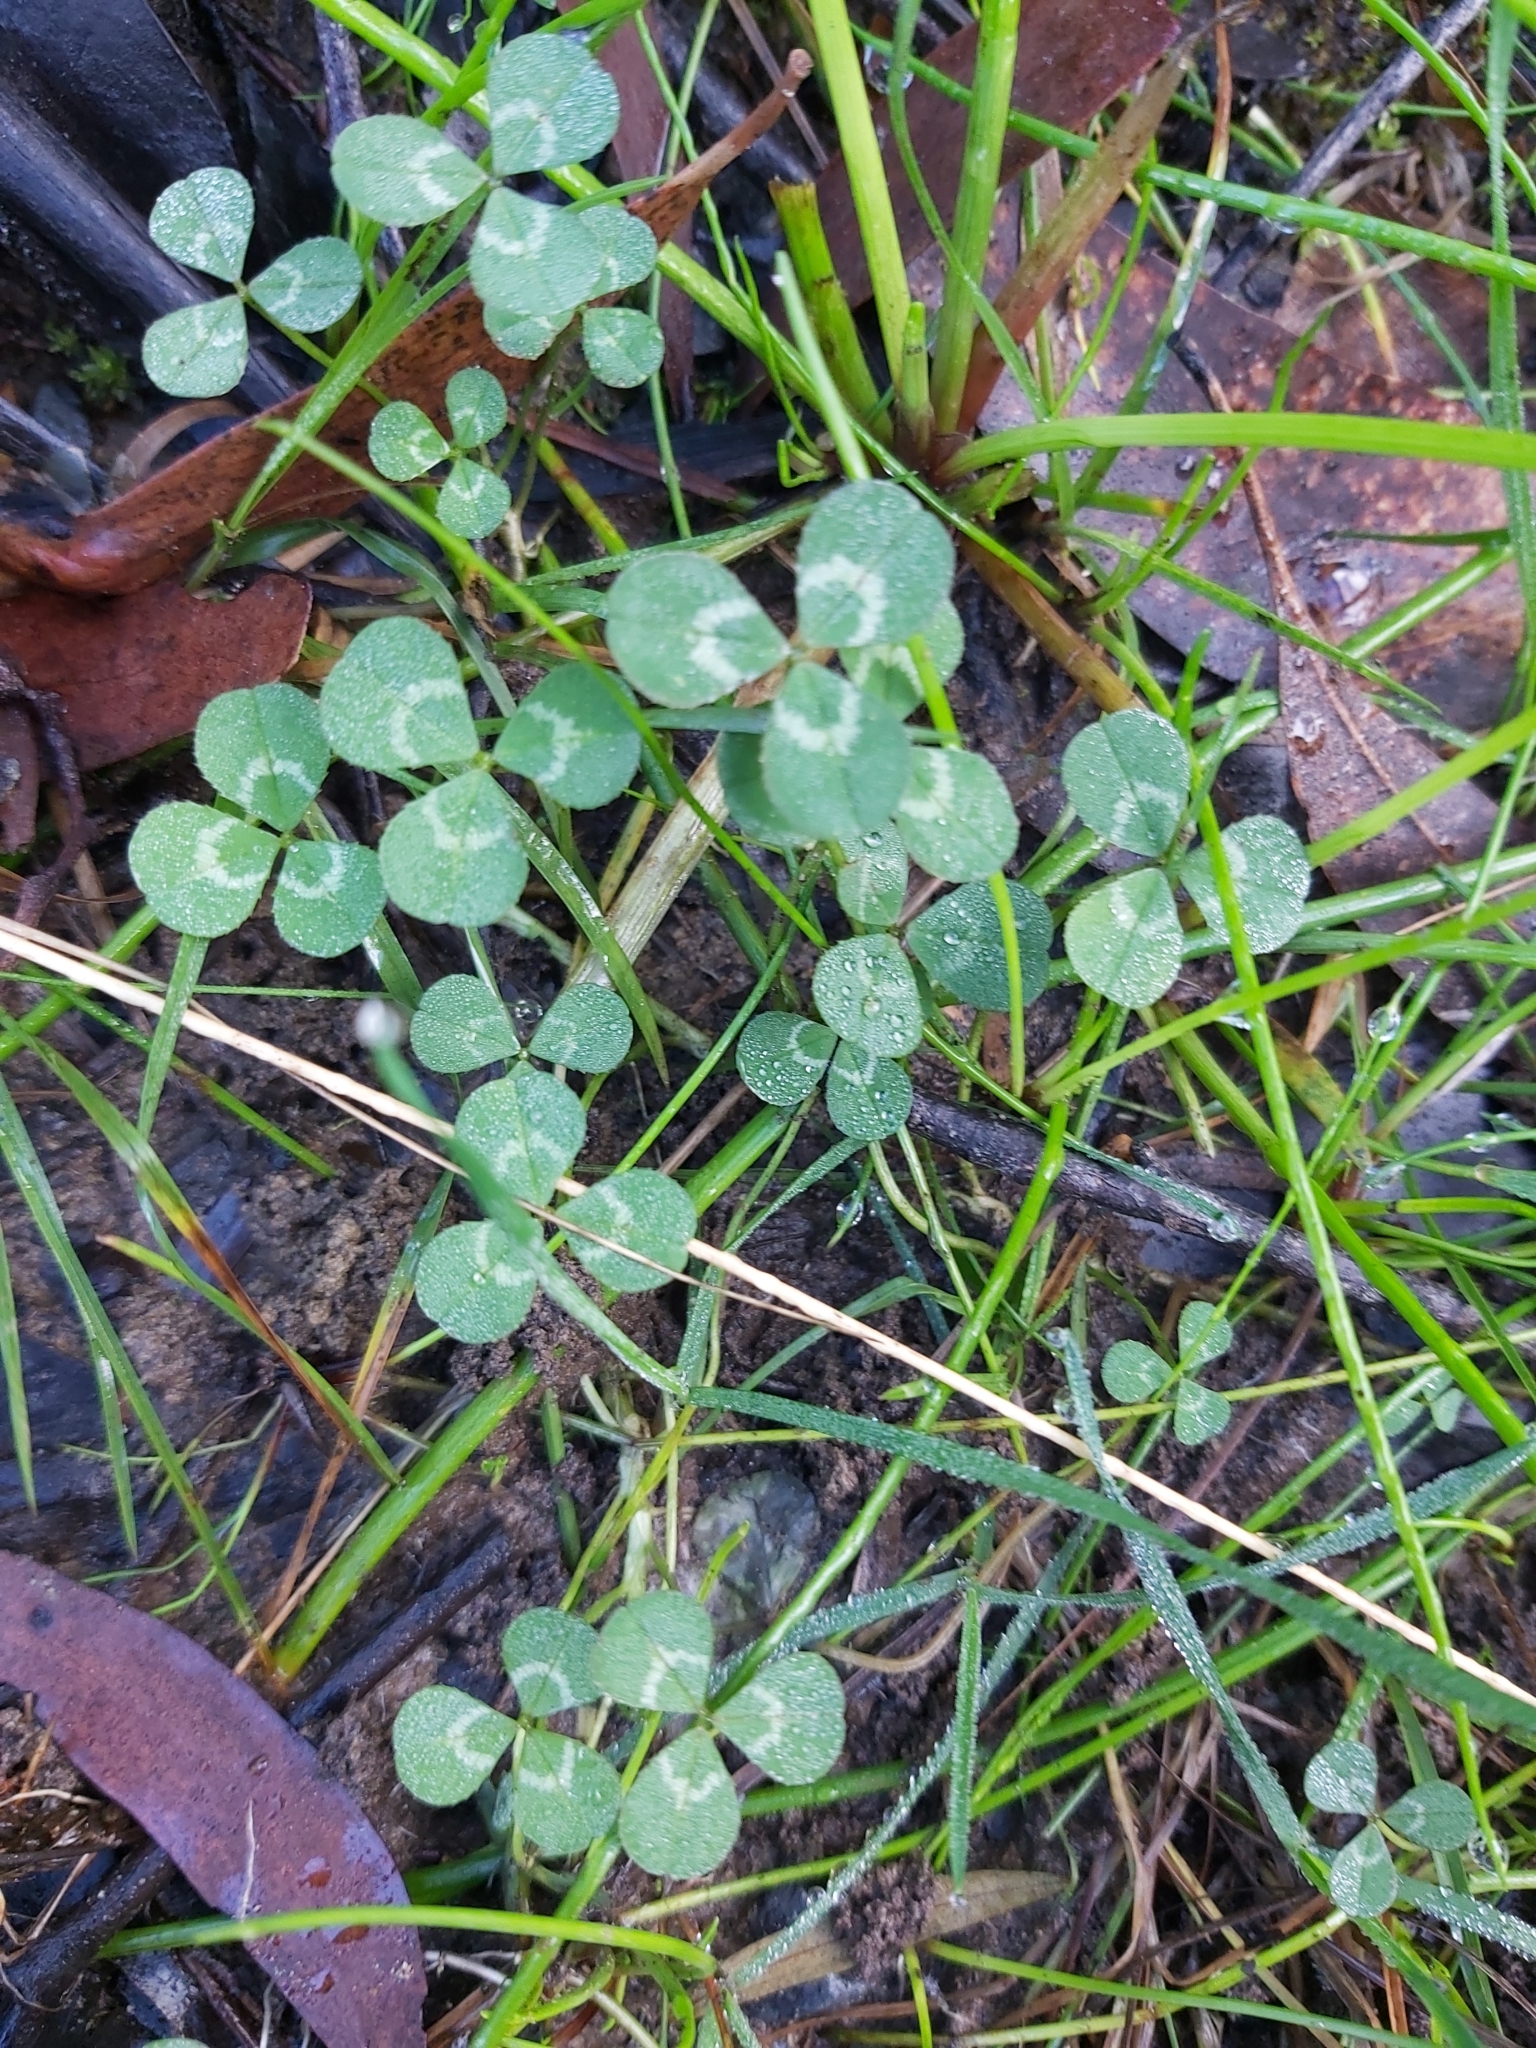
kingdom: Plantae
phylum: Tracheophyta
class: Magnoliopsida
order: Fabales
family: Fabaceae
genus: Trifolium
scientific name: Trifolium repens
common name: White clover
